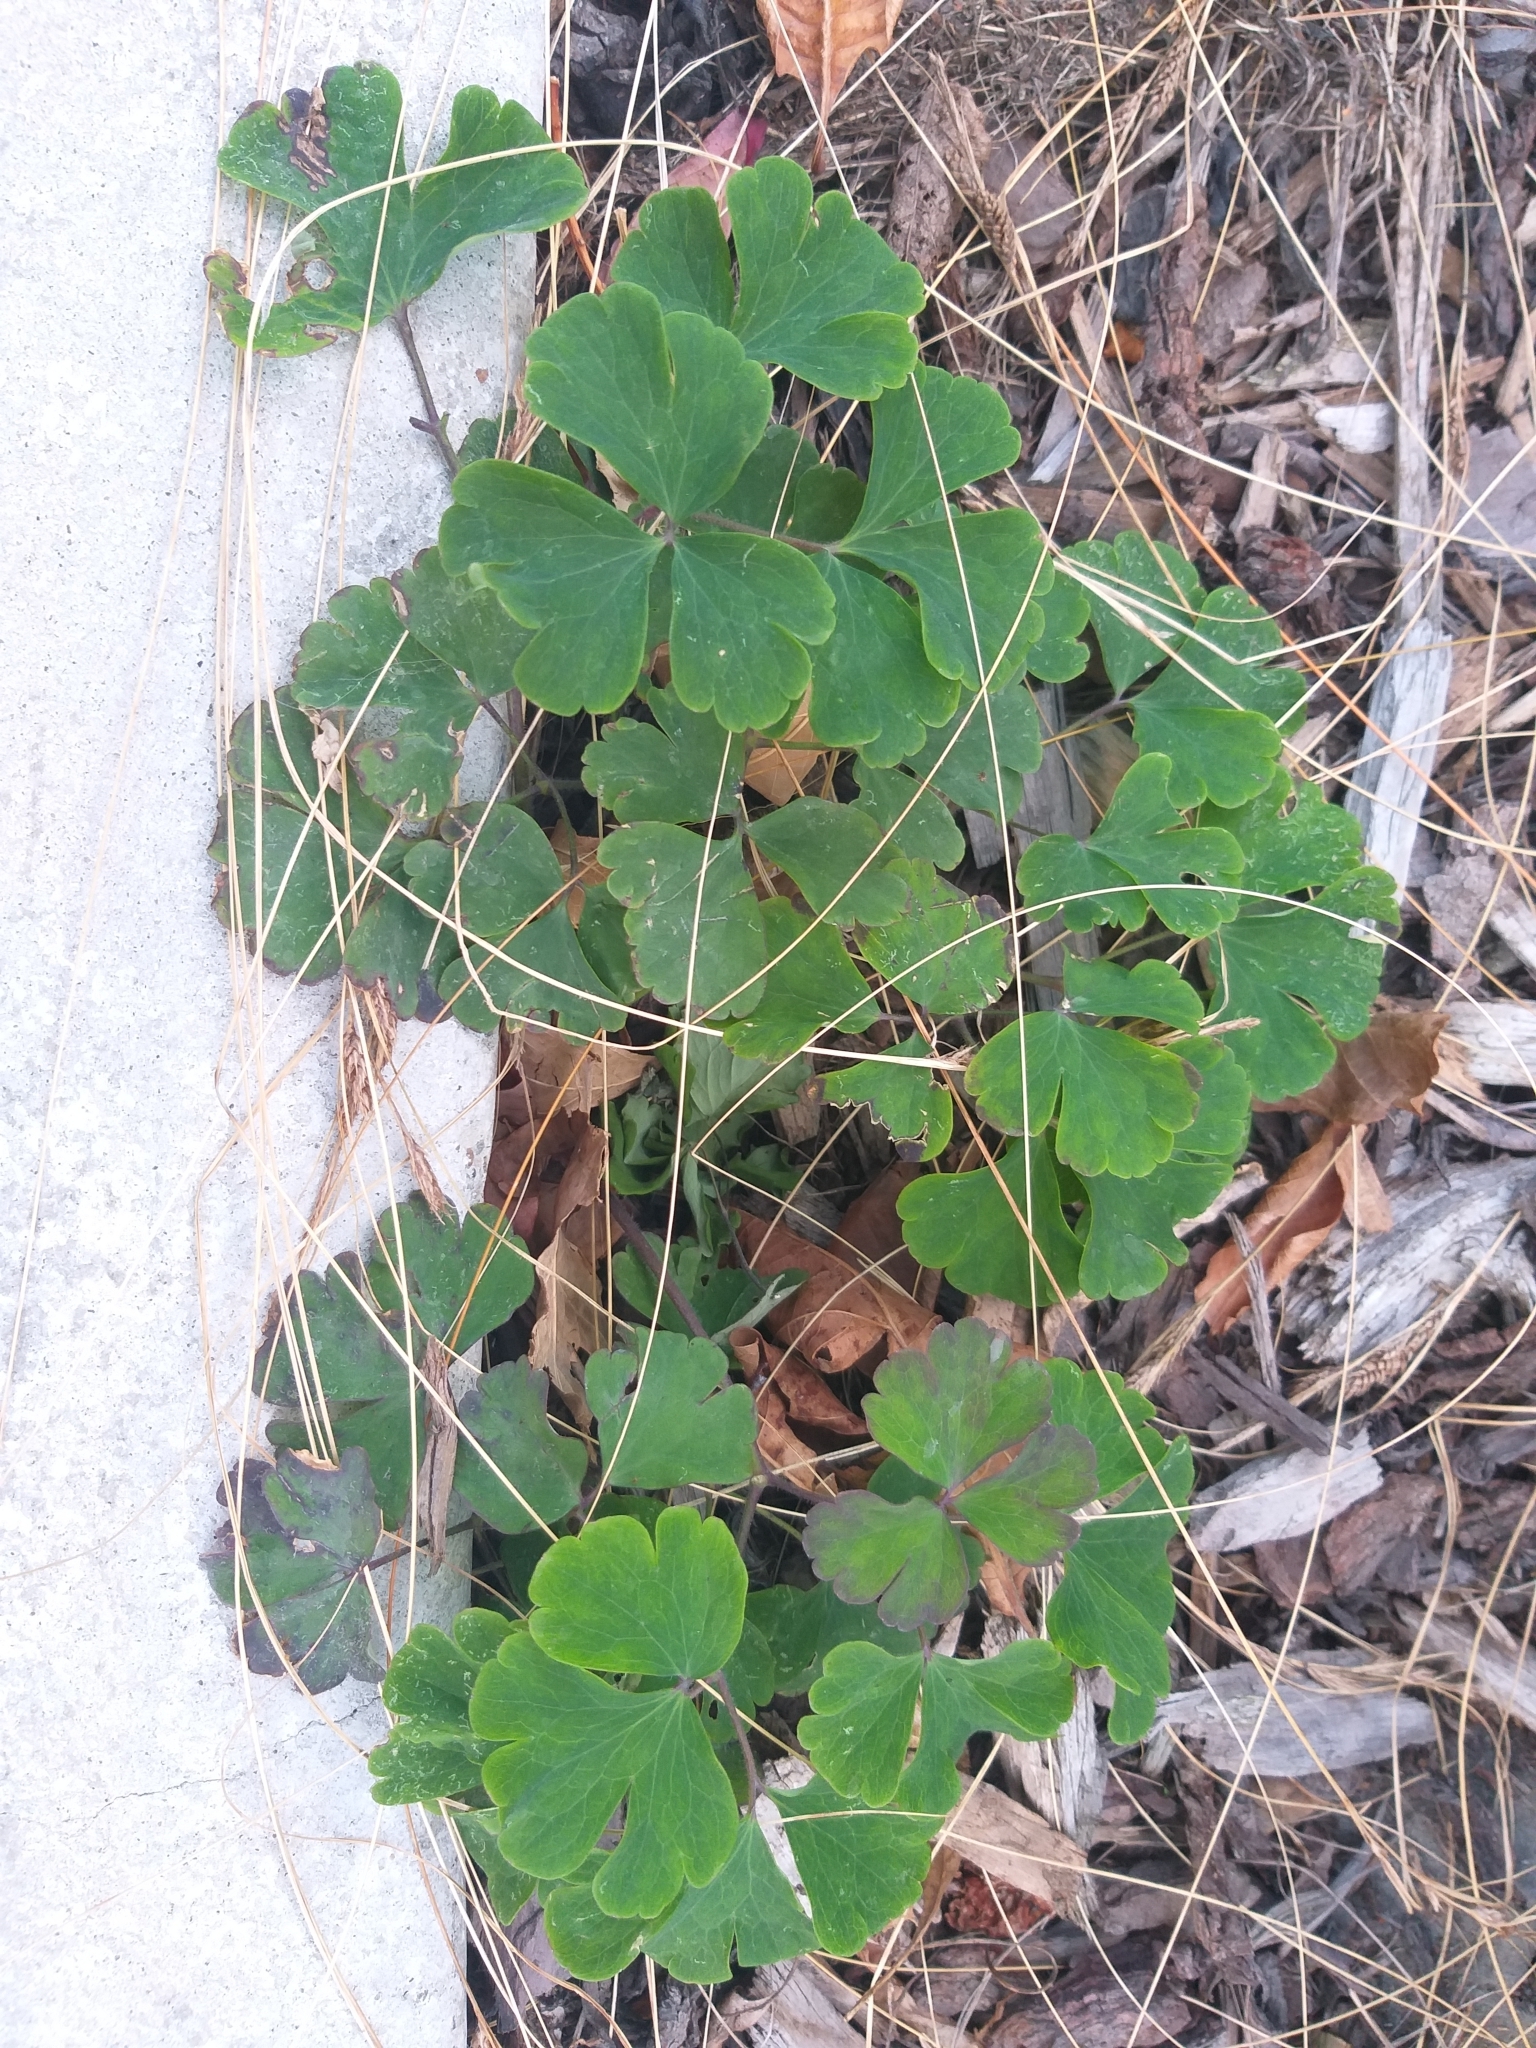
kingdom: Plantae
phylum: Tracheophyta
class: Magnoliopsida
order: Ranunculales
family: Ranunculaceae
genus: Aquilegia
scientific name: Aquilegia vulgaris
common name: Columbine
